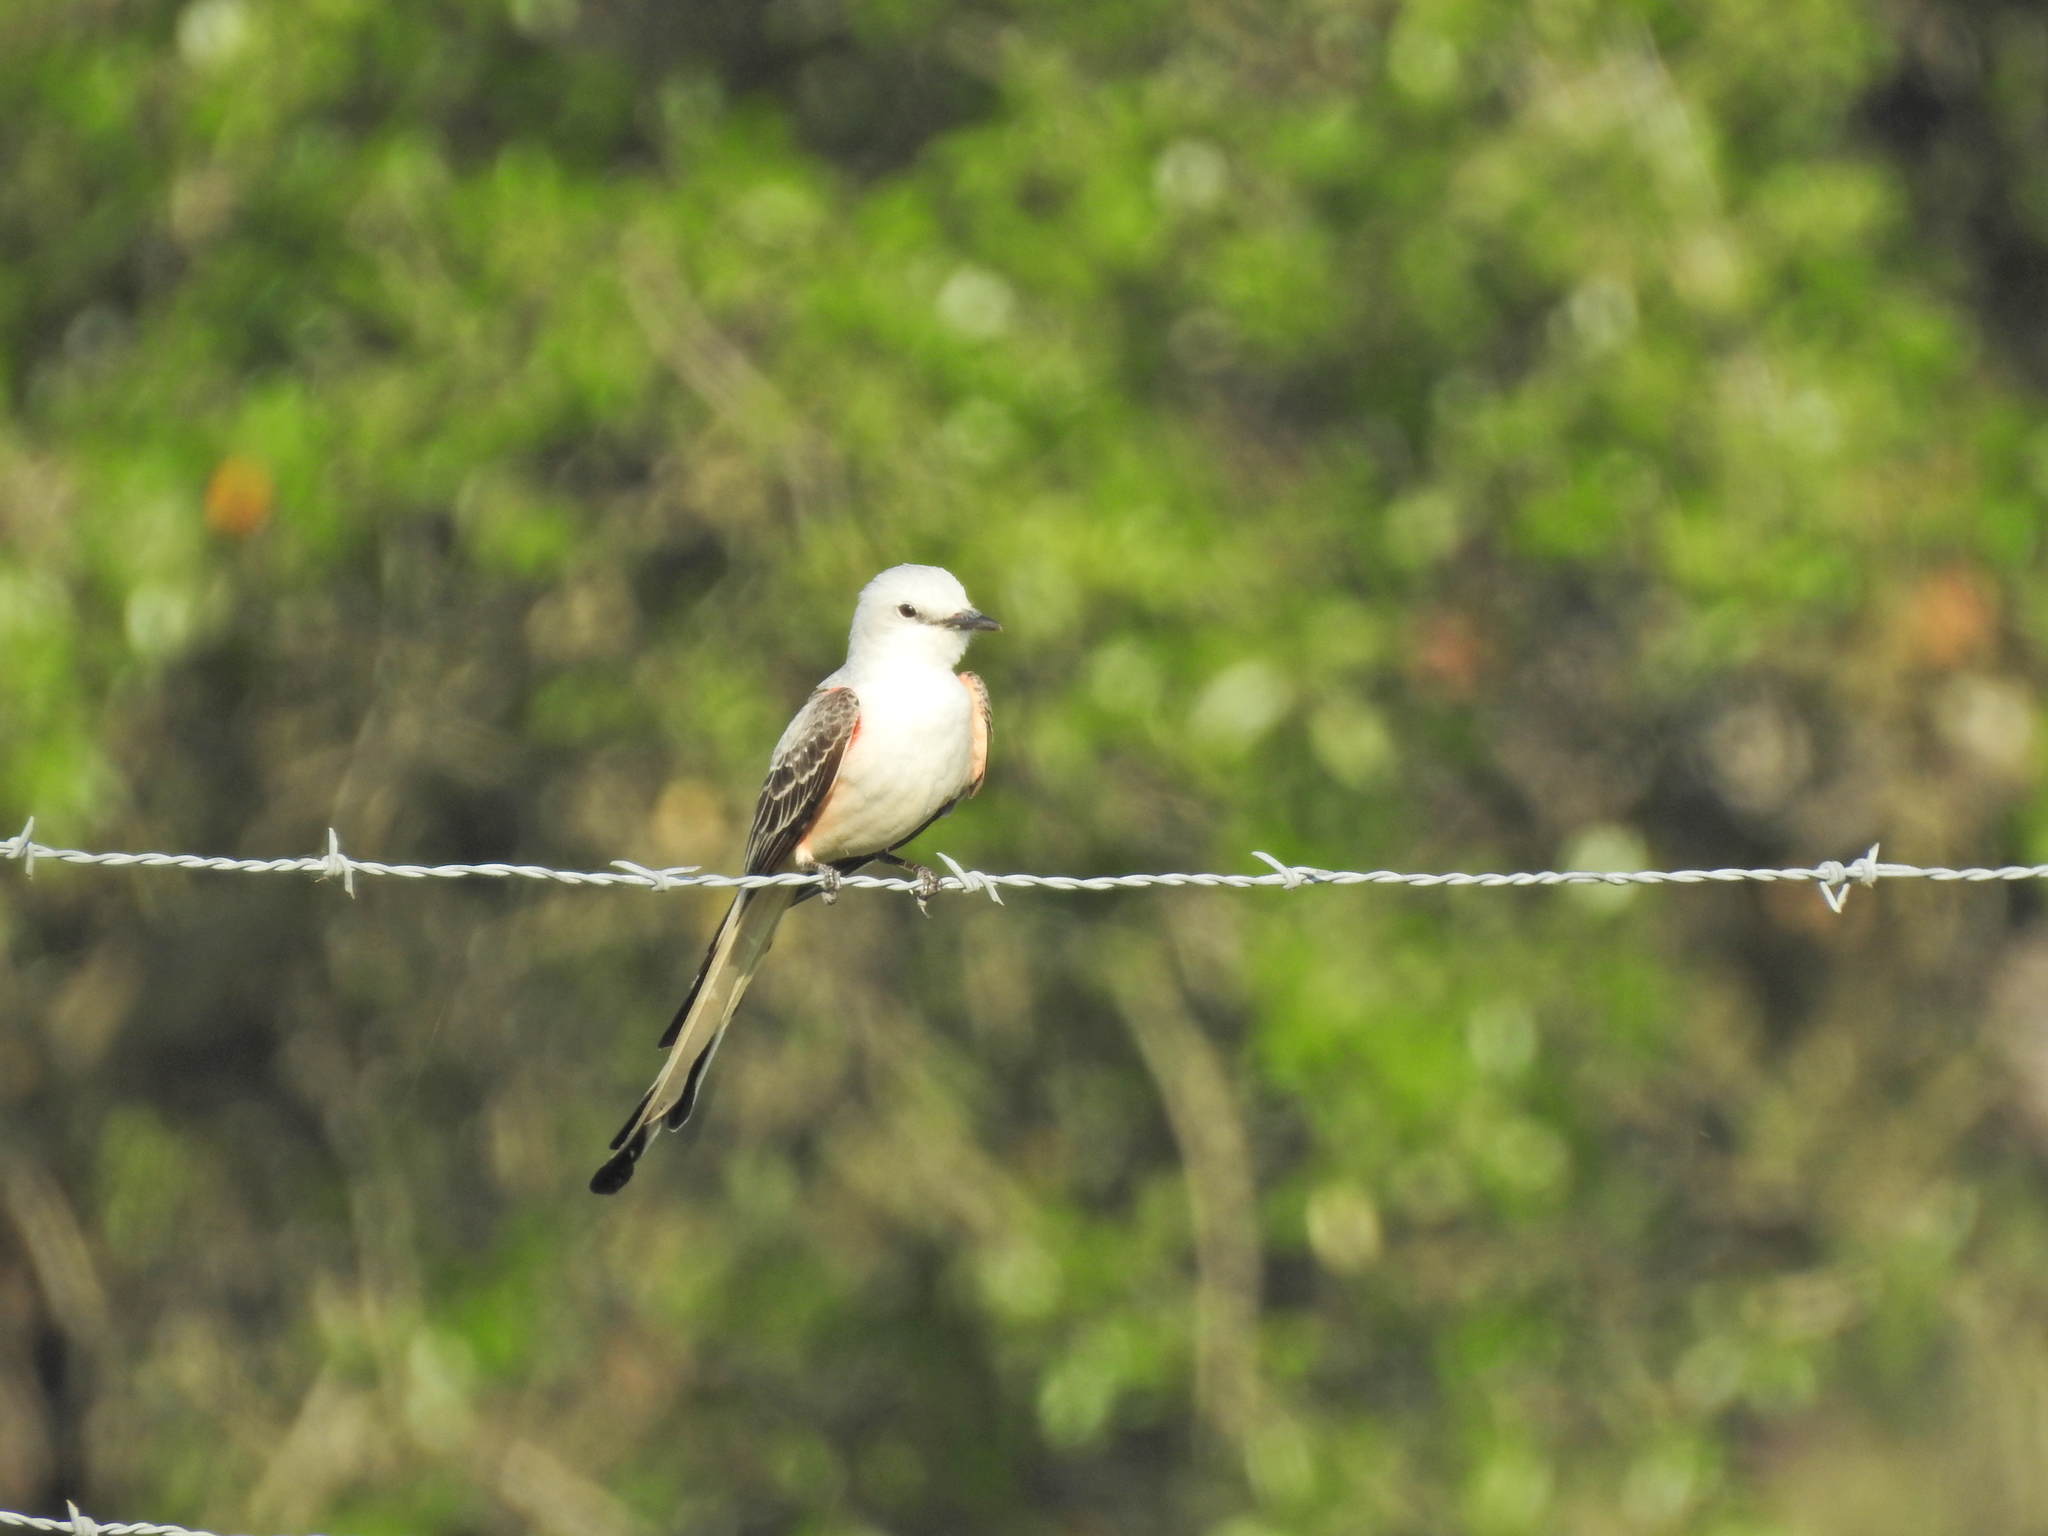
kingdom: Animalia
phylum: Chordata
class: Aves
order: Passeriformes
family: Tyrannidae
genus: Tyrannus
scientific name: Tyrannus forficatus
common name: Scissor-tailed flycatcher
